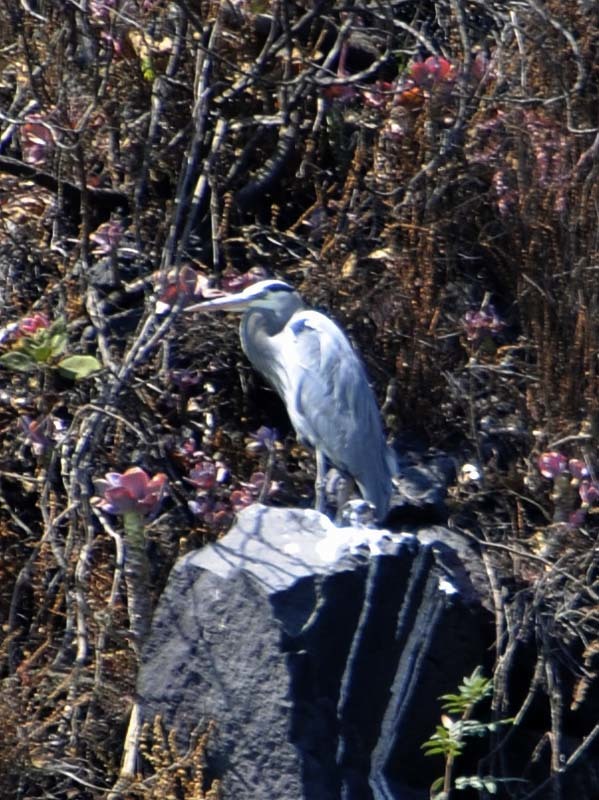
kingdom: Animalia
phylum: Chordata
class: Aves
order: Pelecaniformes
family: Ardeidae
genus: Ardea
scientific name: Ardea herodias
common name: Great blue heron
